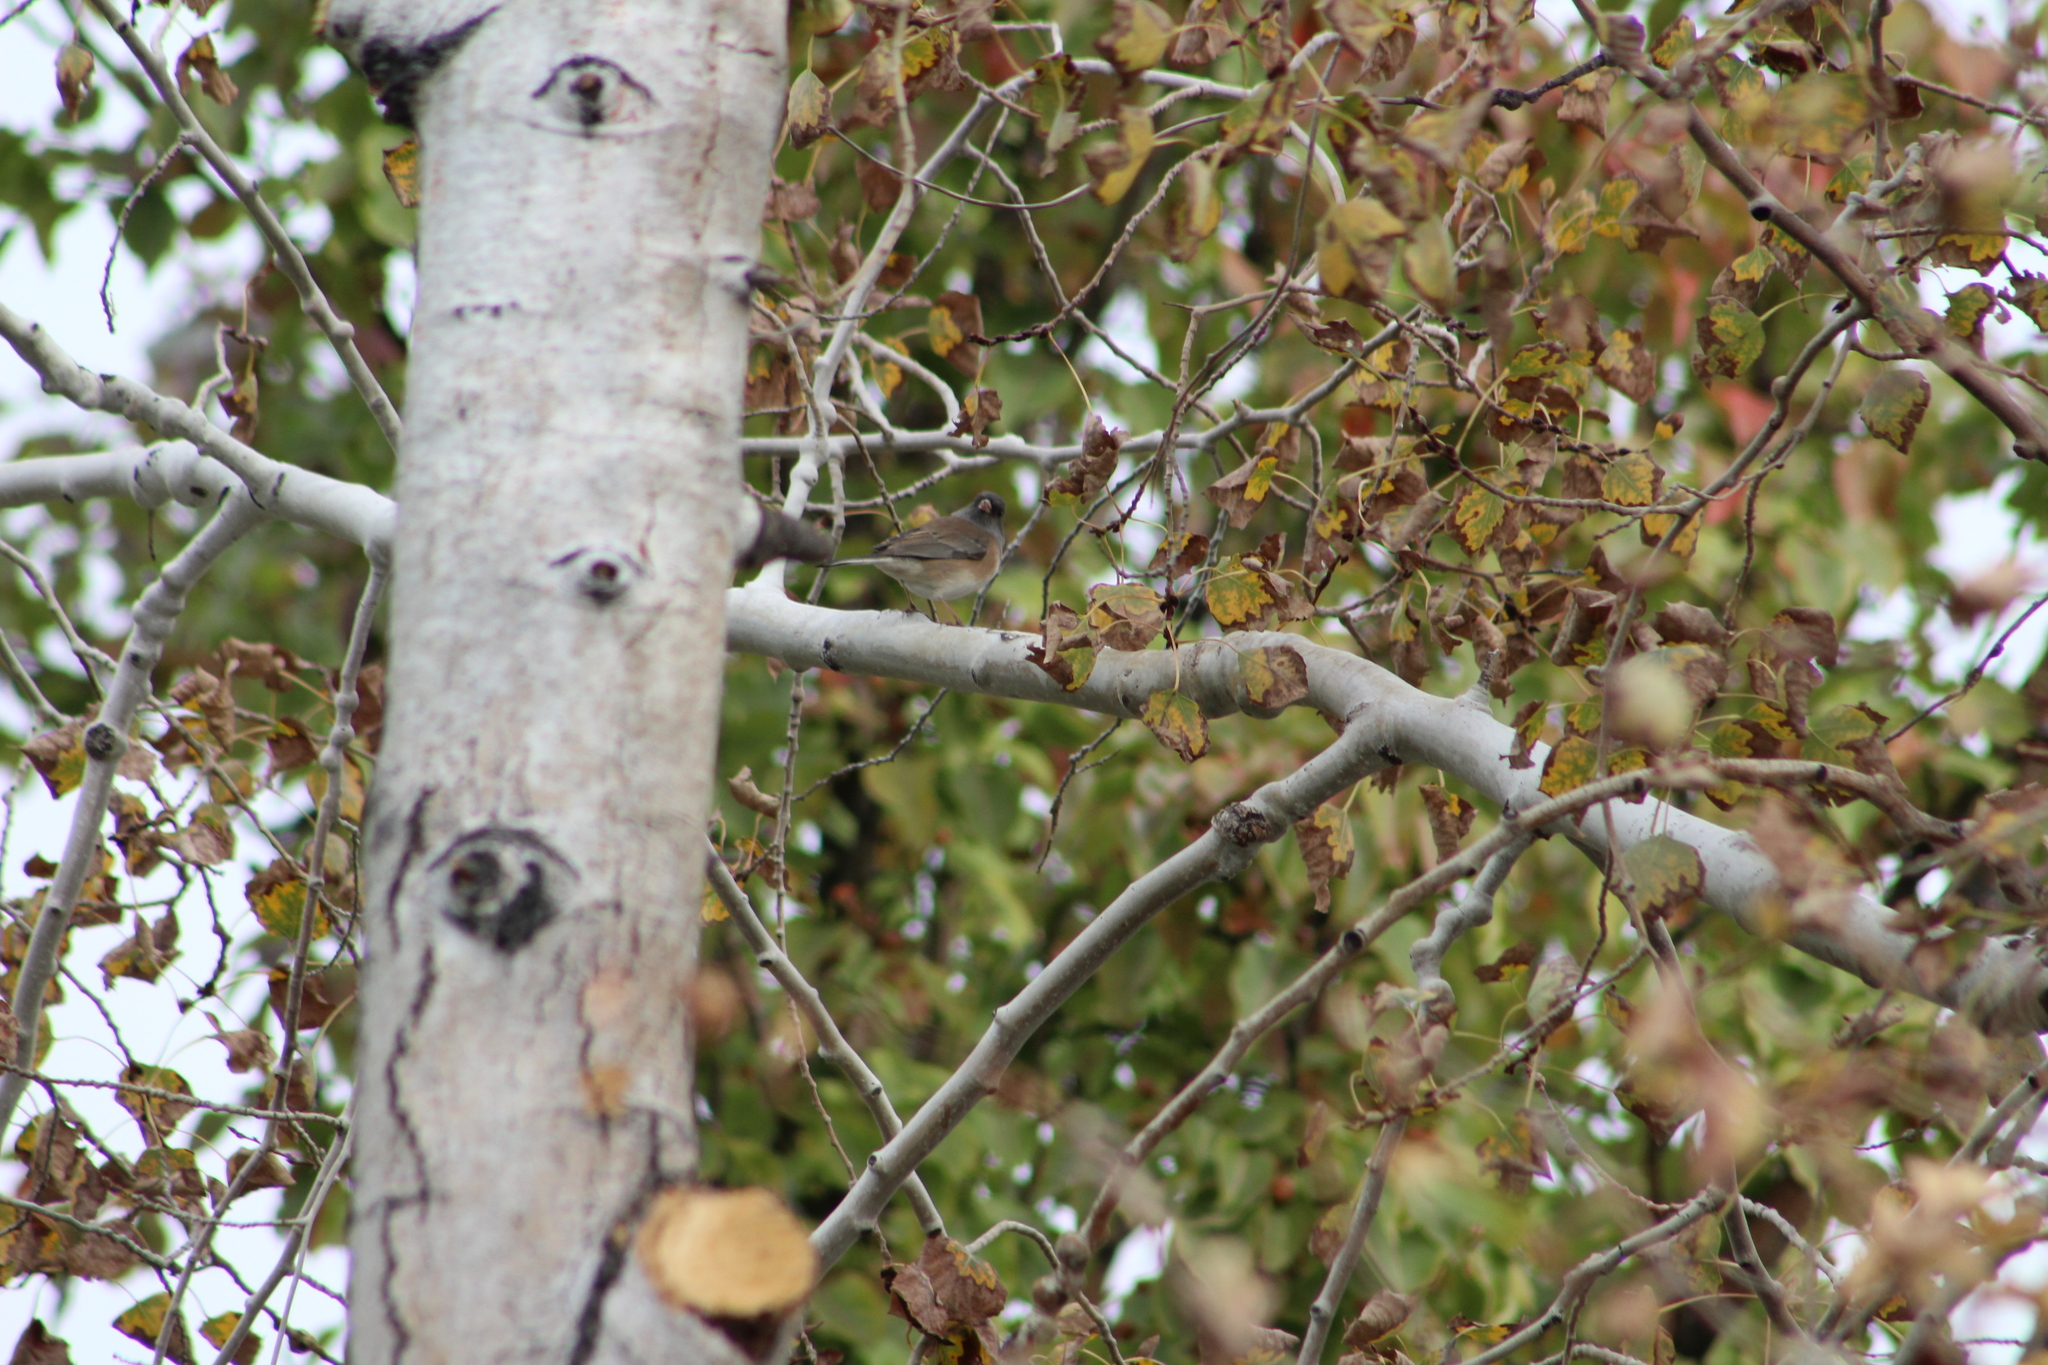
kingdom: Animalia
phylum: Chordata
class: Aves
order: Passeriformes
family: Passerellidae
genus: Junco
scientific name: Junco hyemalis
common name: Dark-eyed junco
